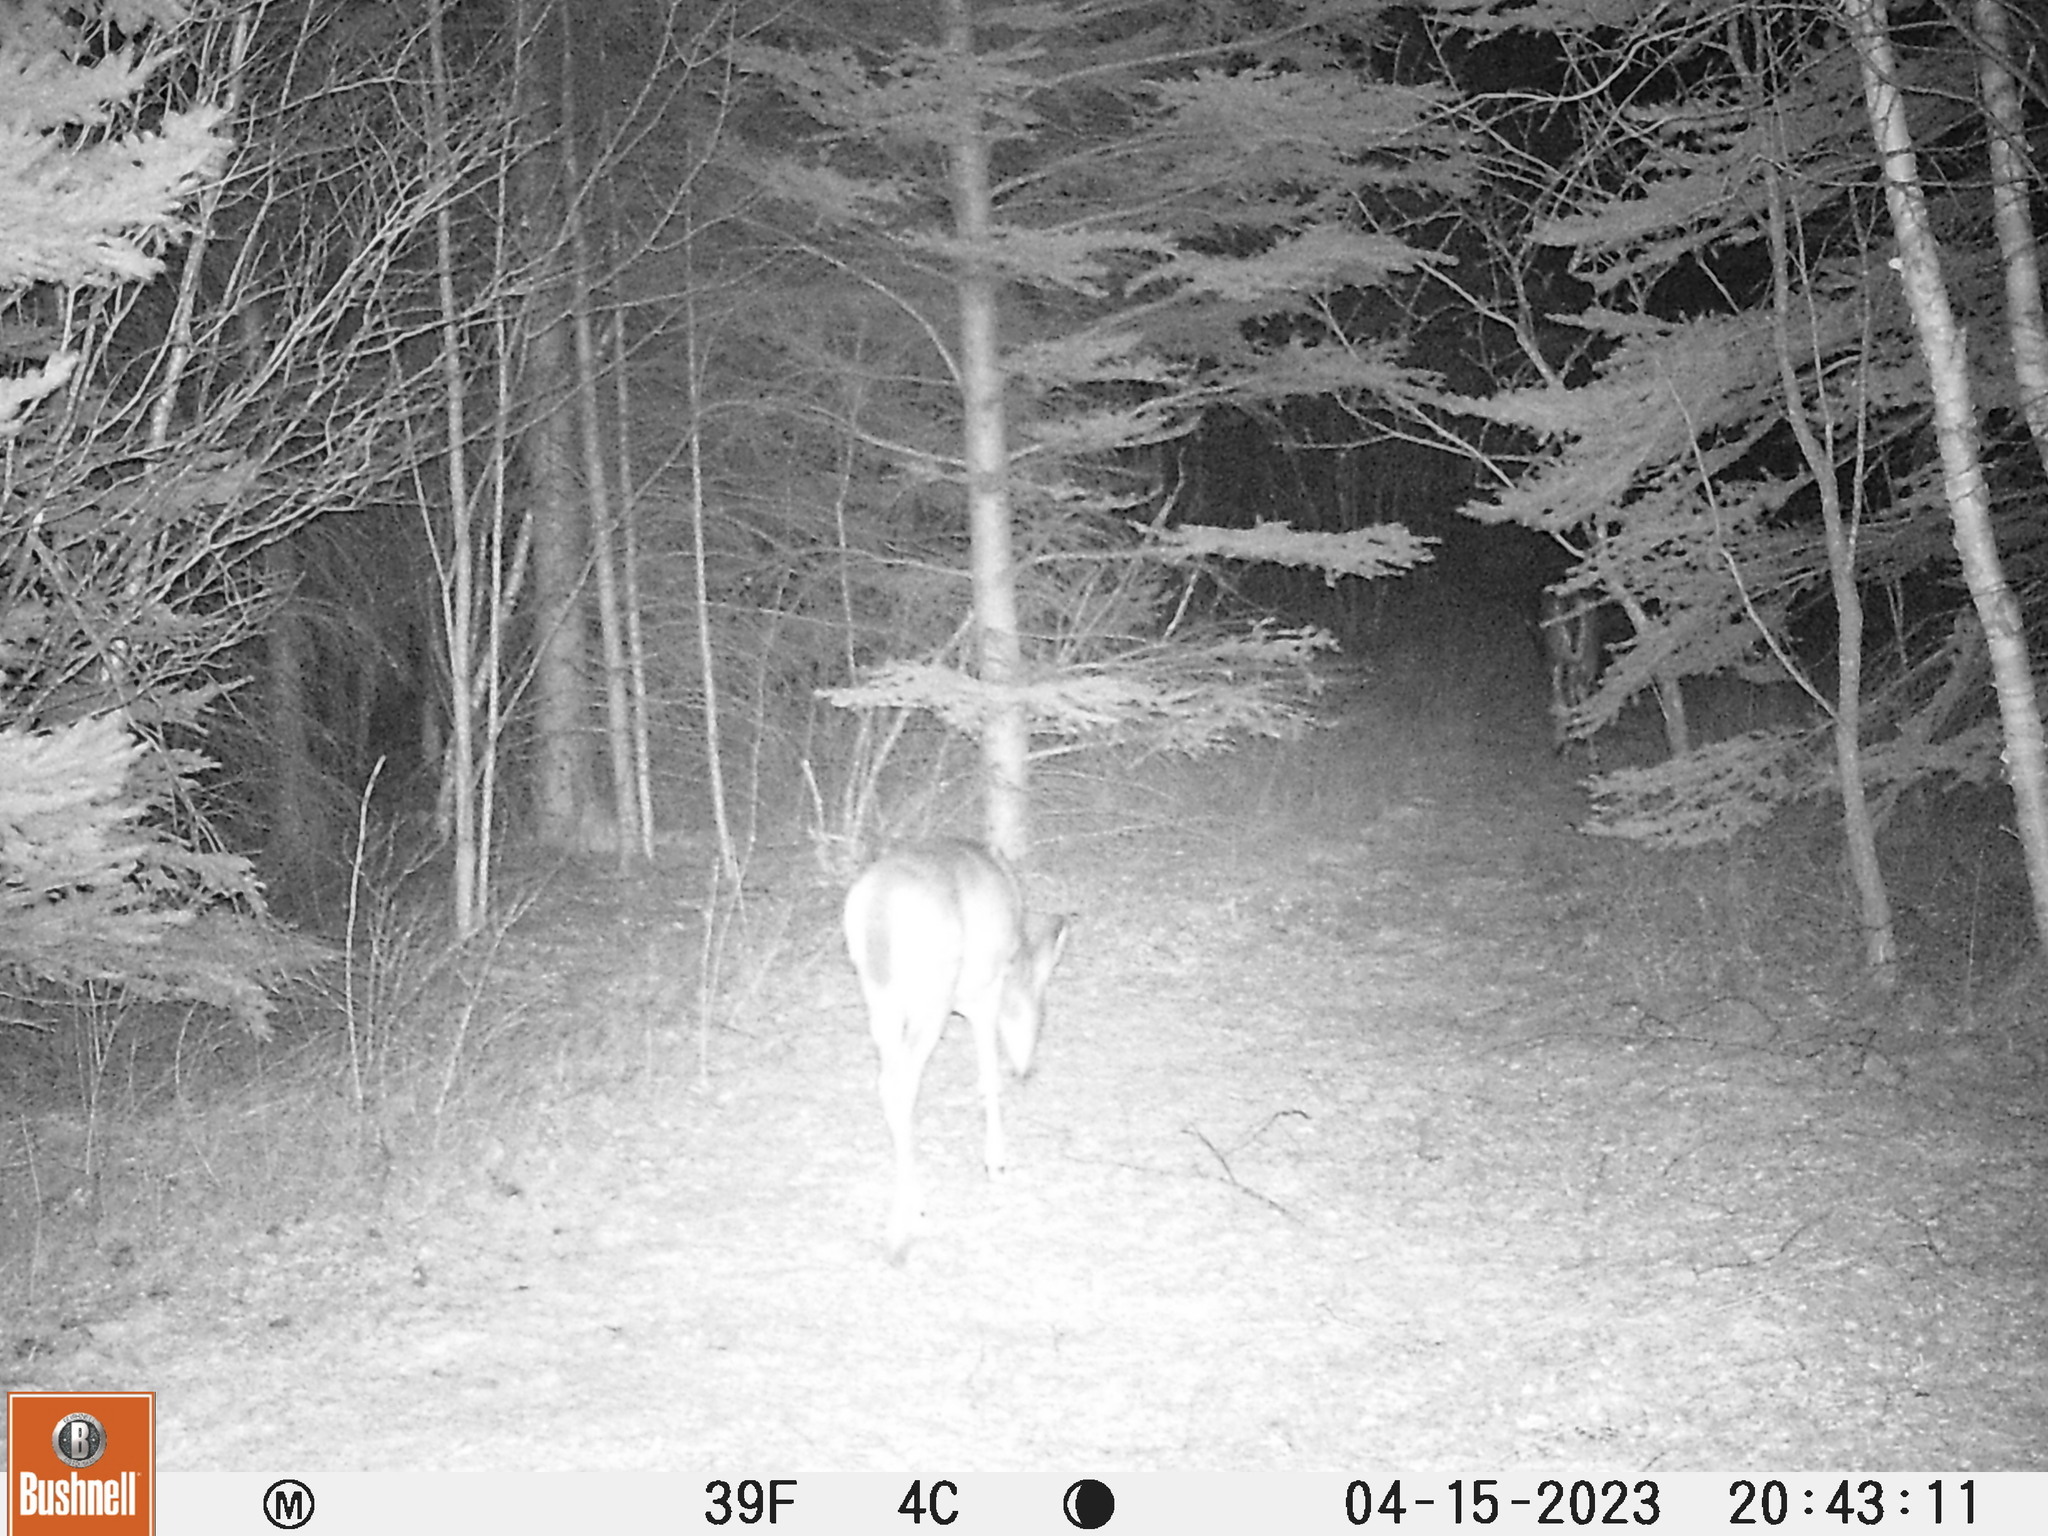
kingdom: Animalia
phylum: Chordata
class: Mammalia
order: Artiodactyla
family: Cervidae
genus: Odocoileus
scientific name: Odocoileus virginianus
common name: White-tailed deer
